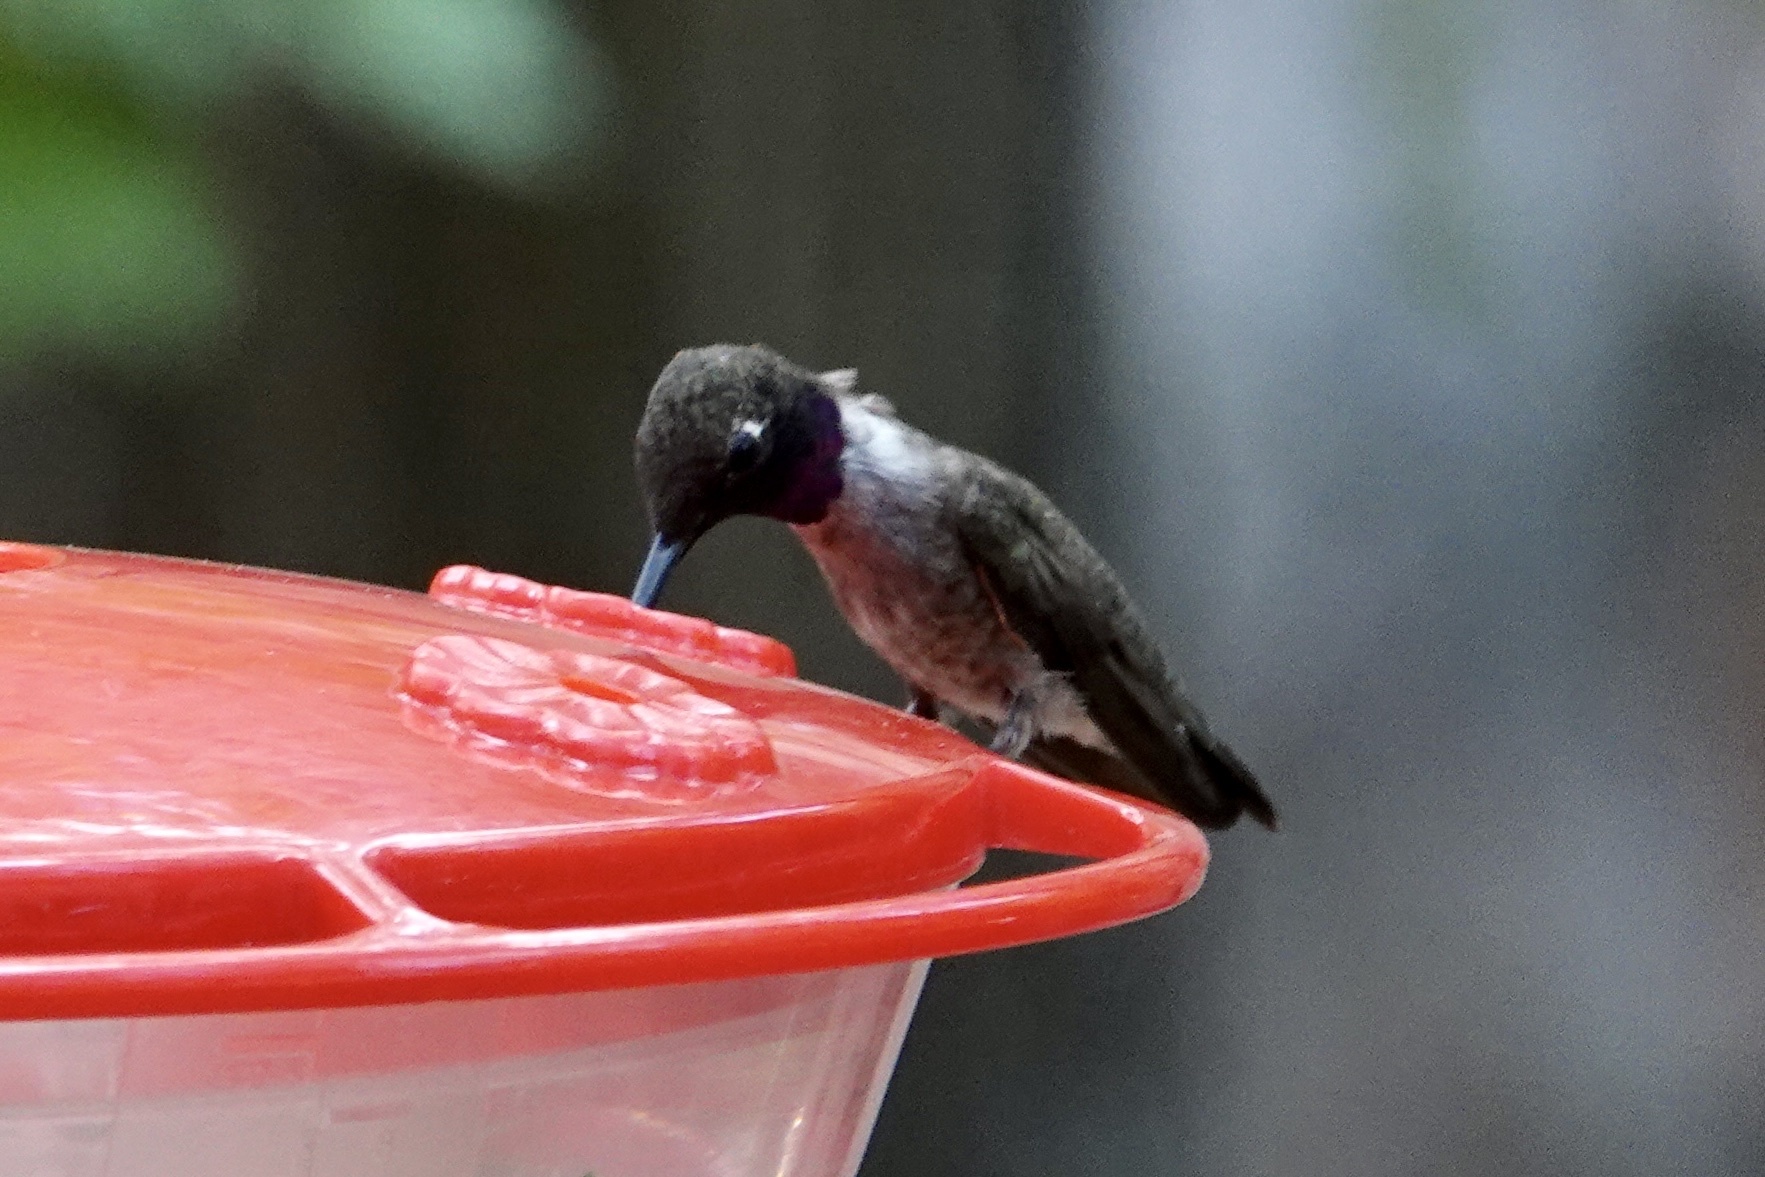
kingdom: Animalia
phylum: Chordata
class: Aves
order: Apodiformes
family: Trochilidae
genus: Archilochus
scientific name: Archilochus alexandri
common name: Black-chinned hummingbird
